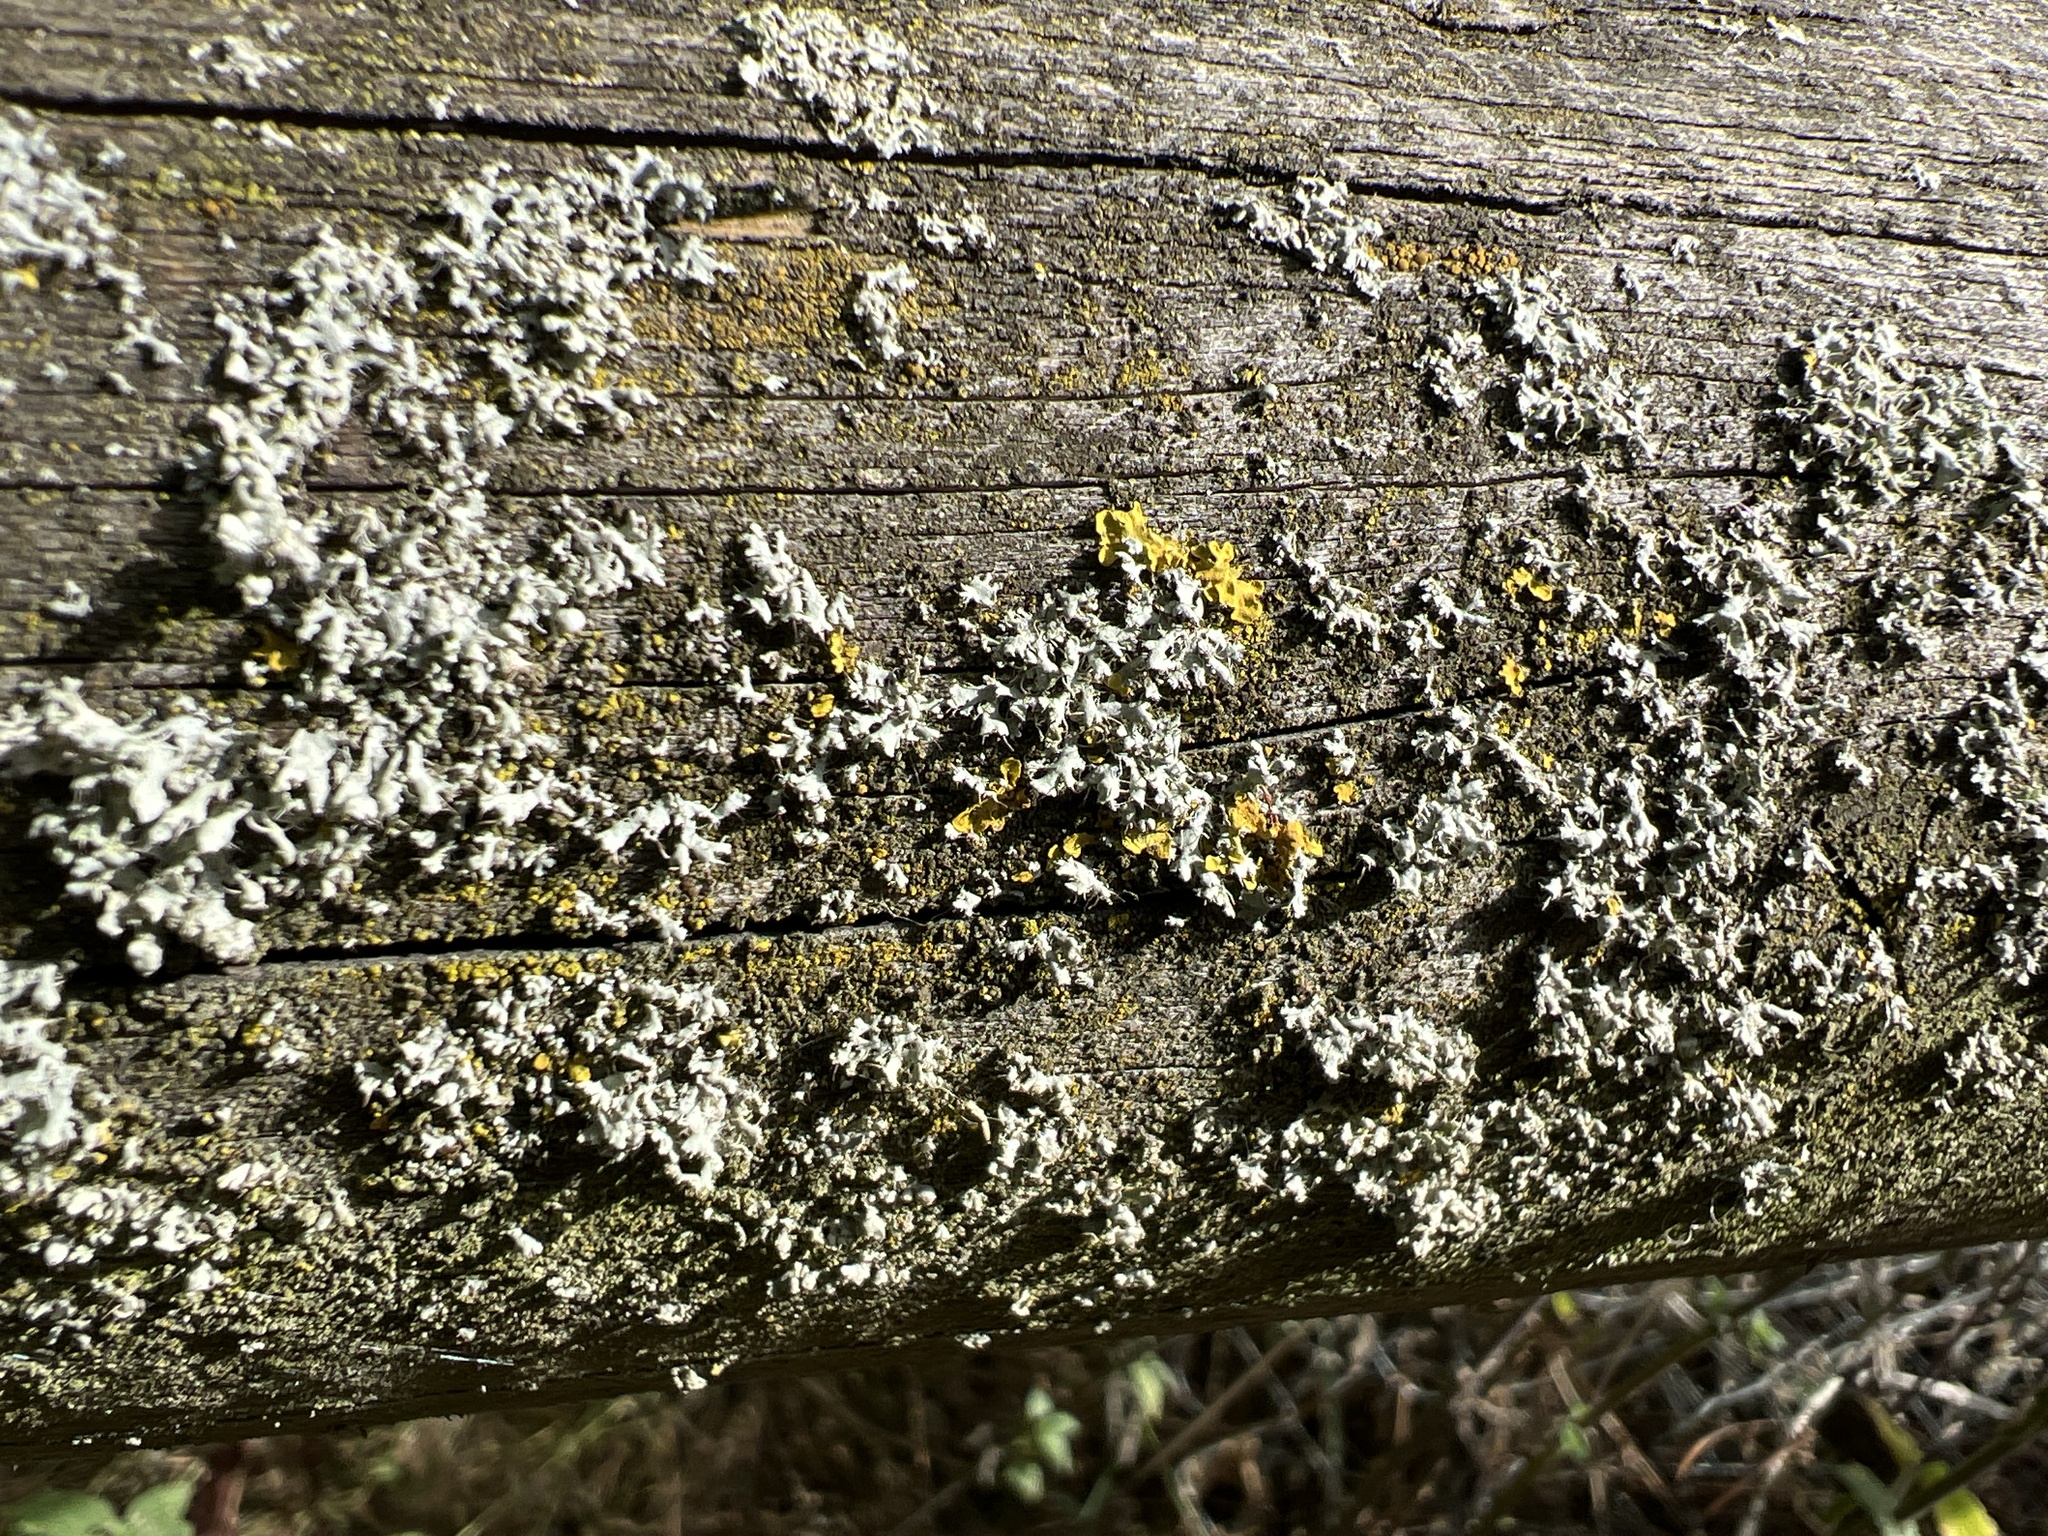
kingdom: Fungi
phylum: Ascomycota
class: Lecanoromycetes
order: Caliciales
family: Physciaceae
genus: Physcia
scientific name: Physcia adscendens
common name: Hooded rosette lichen
